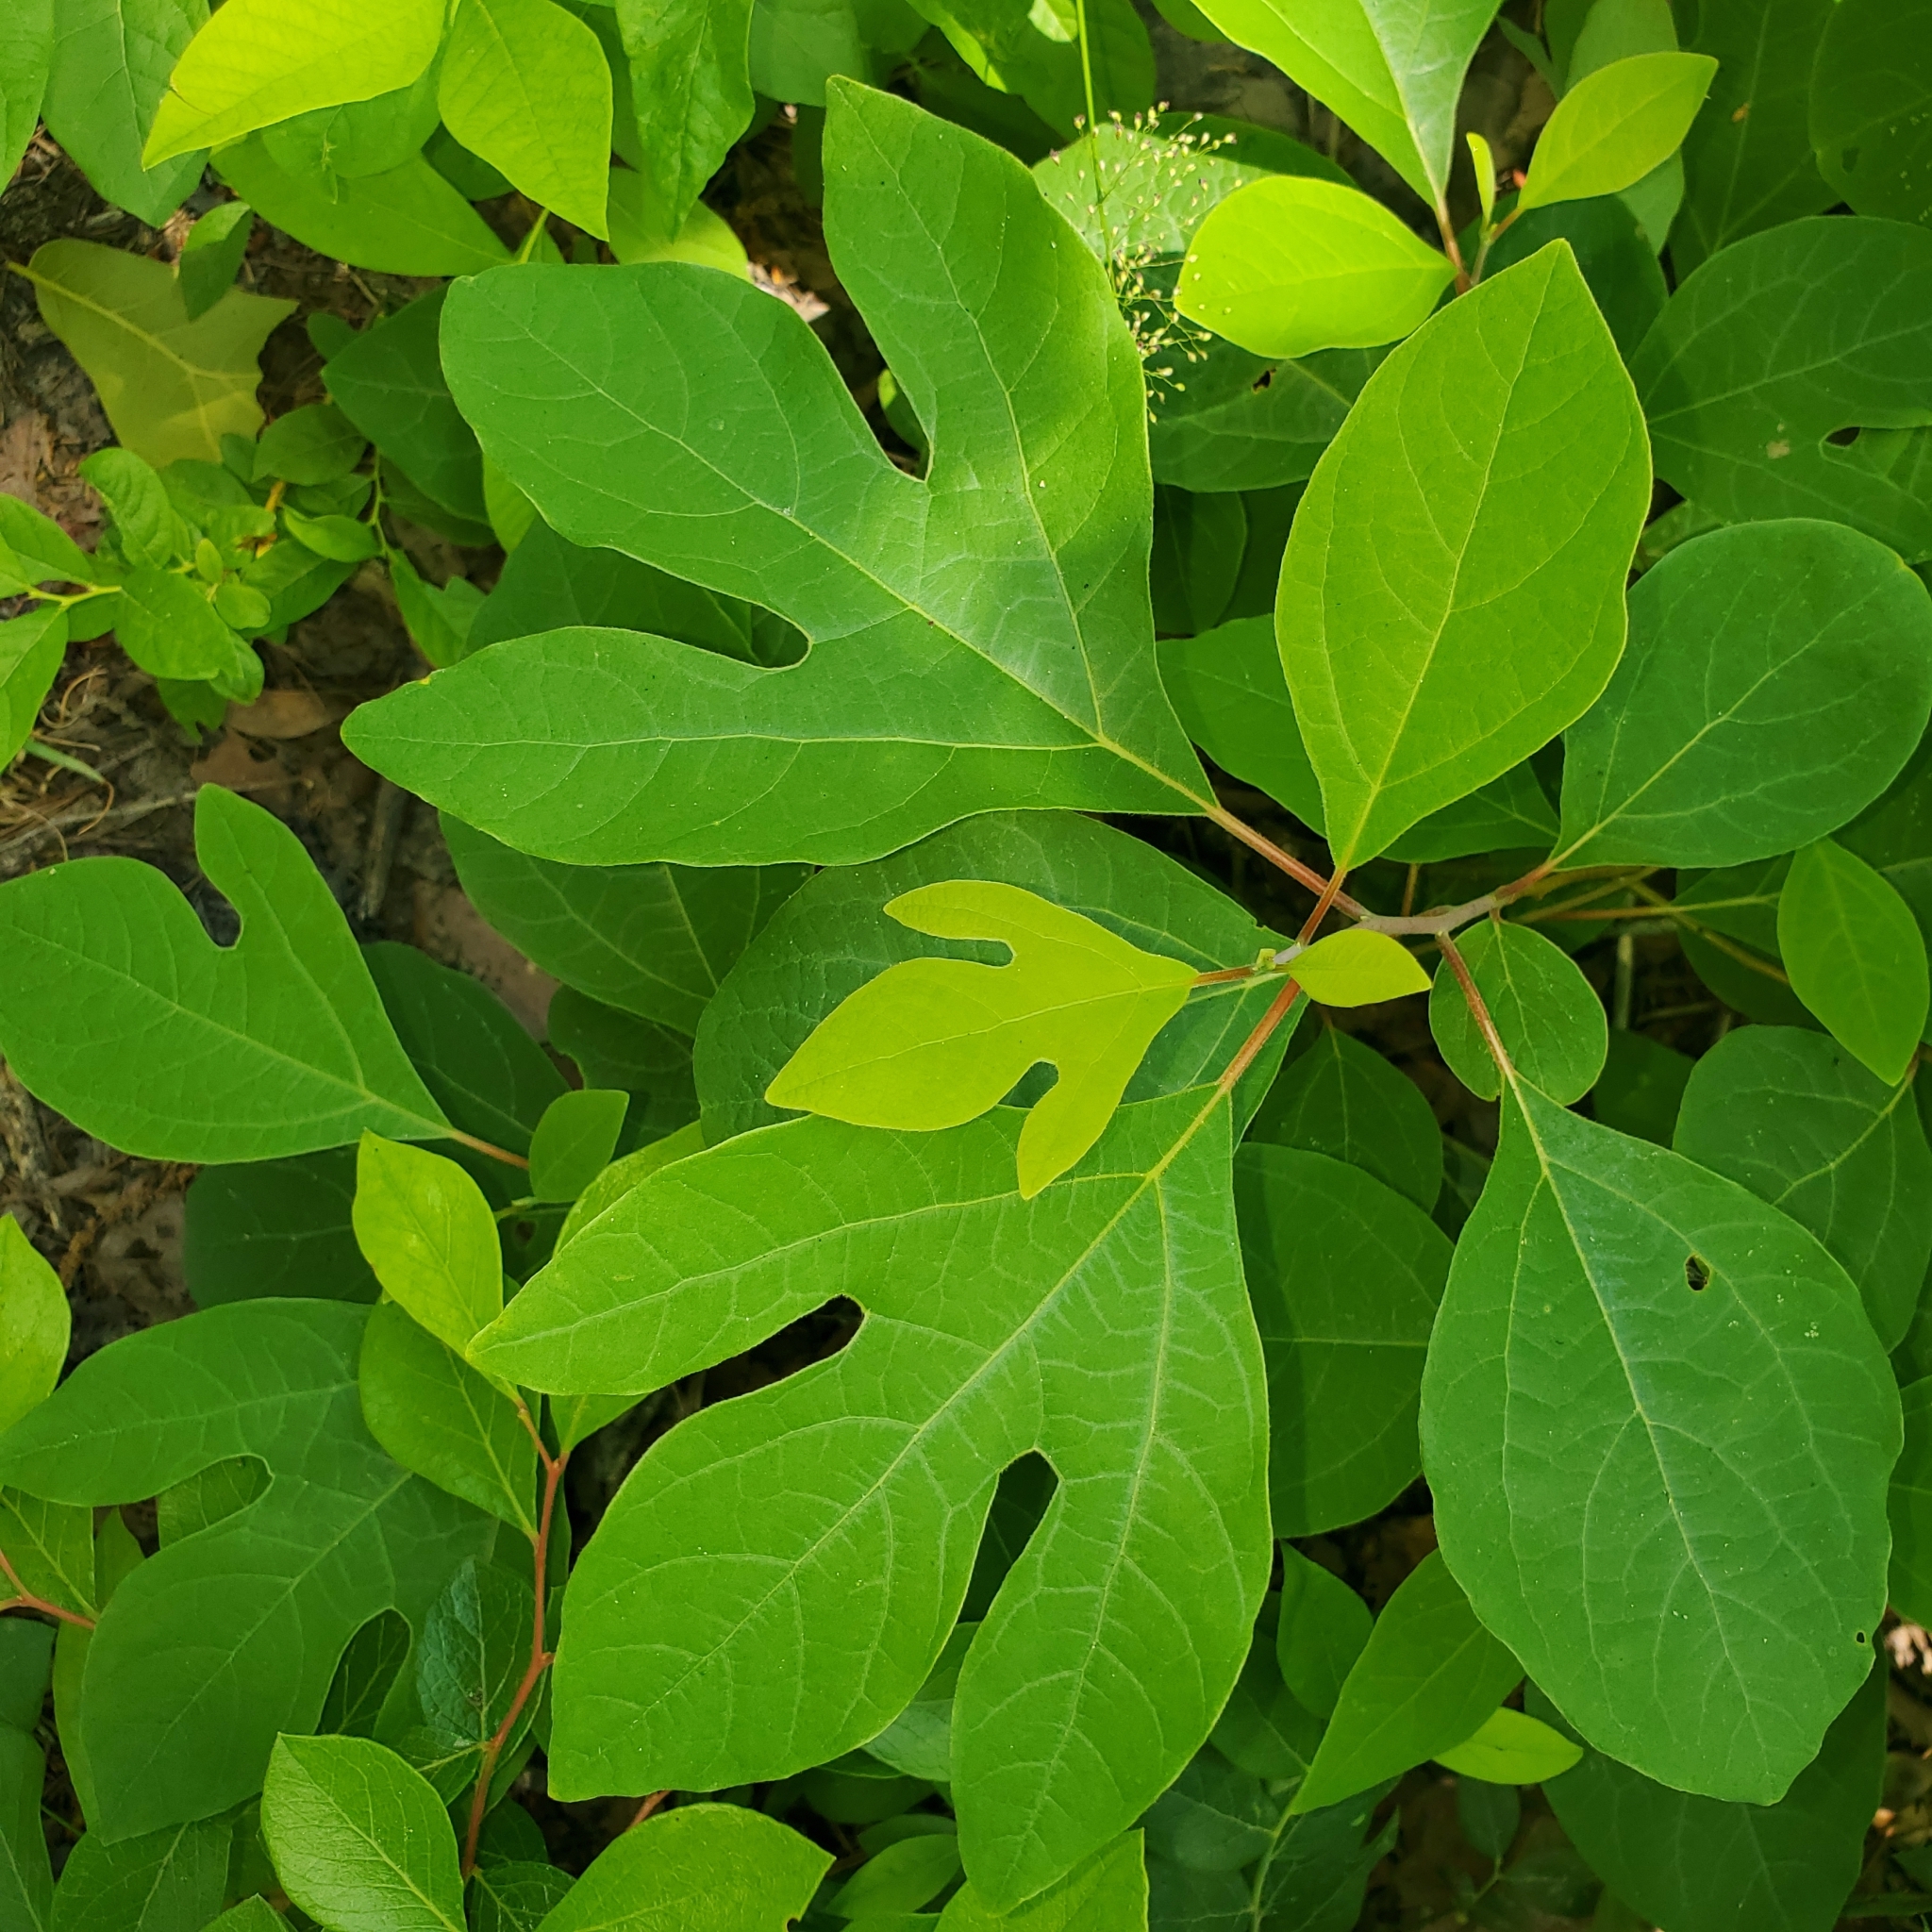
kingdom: Plantae
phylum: Tracheophyta
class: Magnoliopsida
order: Laurales
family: Lauraceae
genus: Sassafras
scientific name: Sassafras albidum
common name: Sassafras
